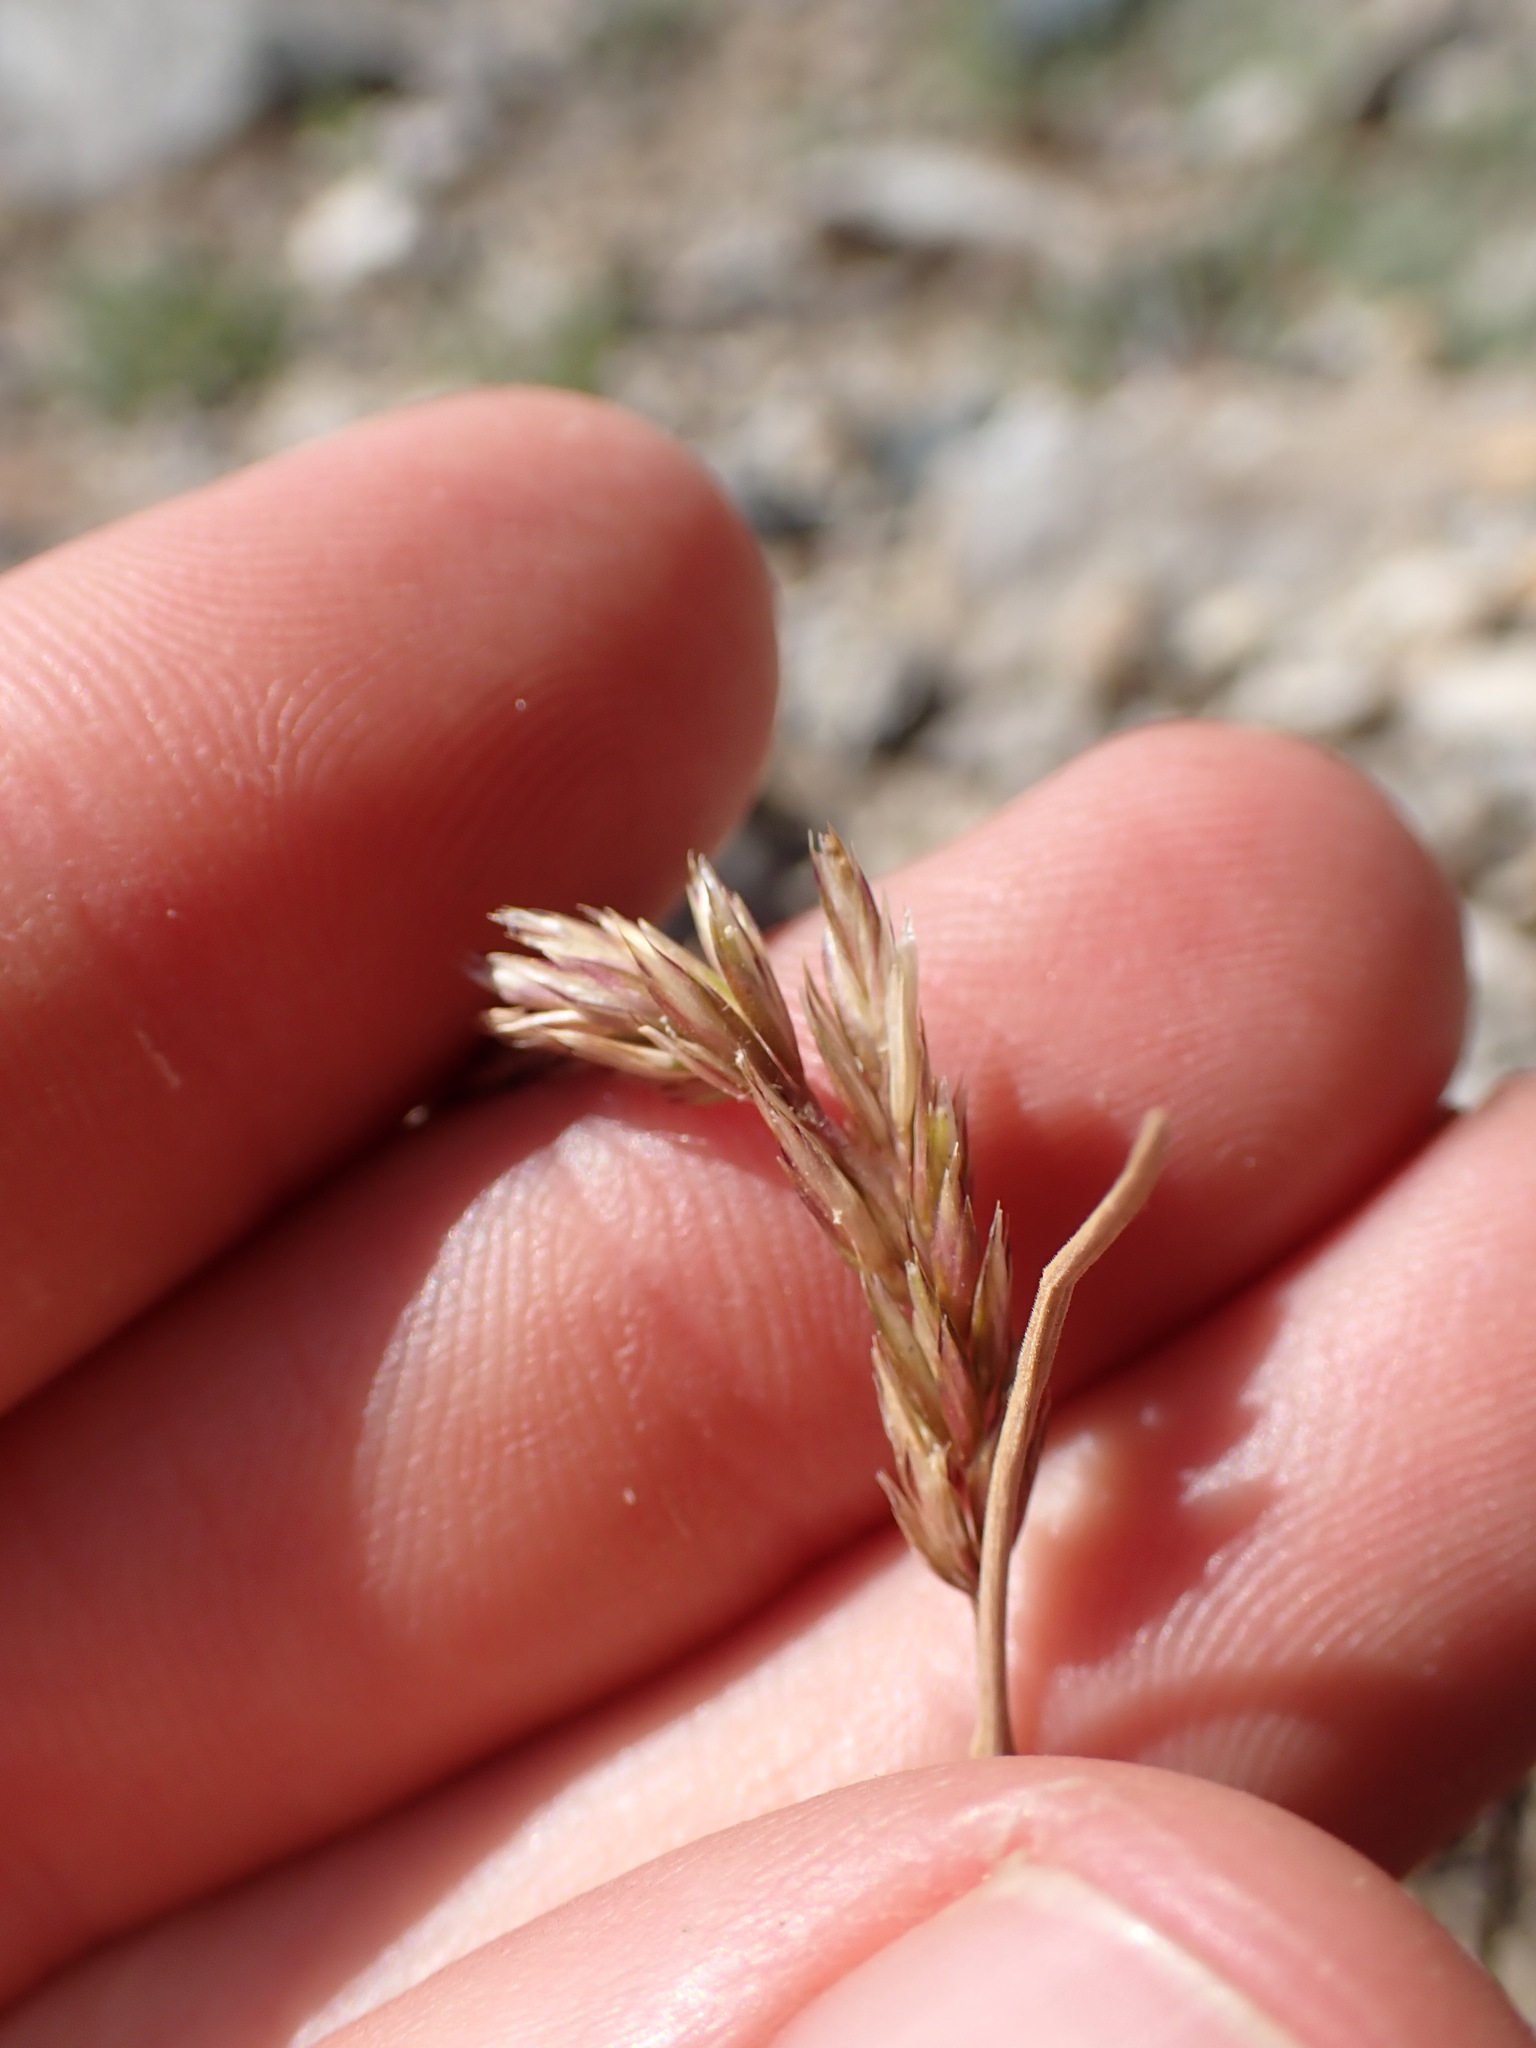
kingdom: Plantae
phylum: Tracheophyta
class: Liliopsida
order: Poales
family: Poaceae
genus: Koeleria
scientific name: Koeleria macrantha
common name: Crested hair-grass
